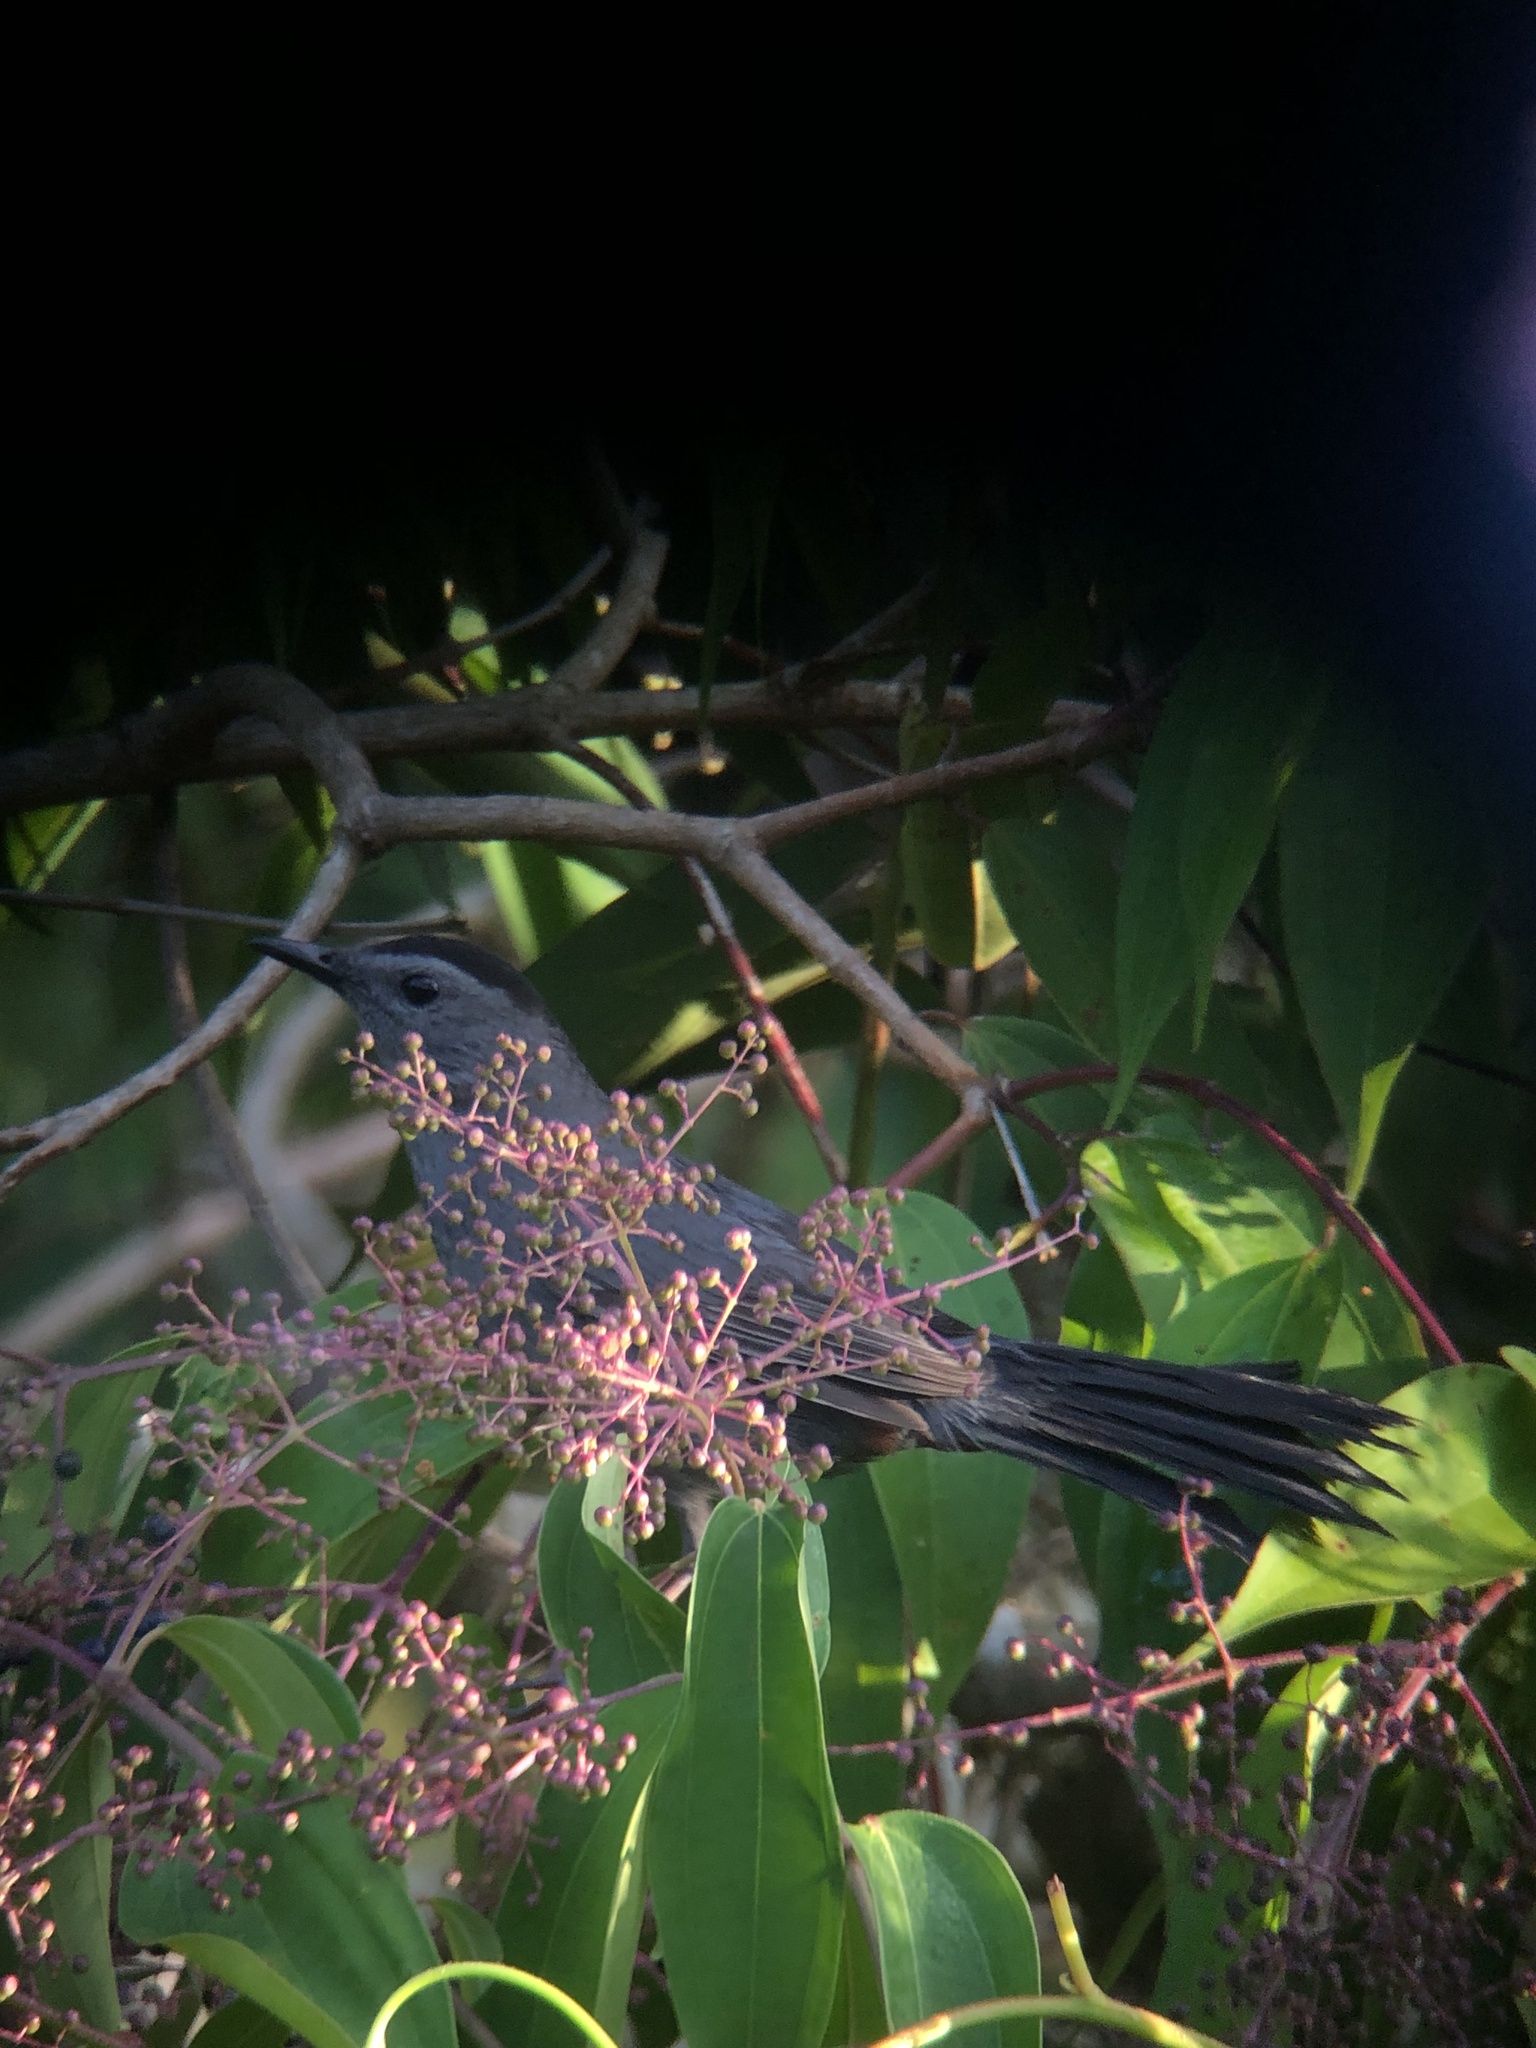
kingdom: Animalia
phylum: Chordata
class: Aves
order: Passeriformes
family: Mimidae
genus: Dumetella
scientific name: Dumetella carolinensis
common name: Gray catbird
